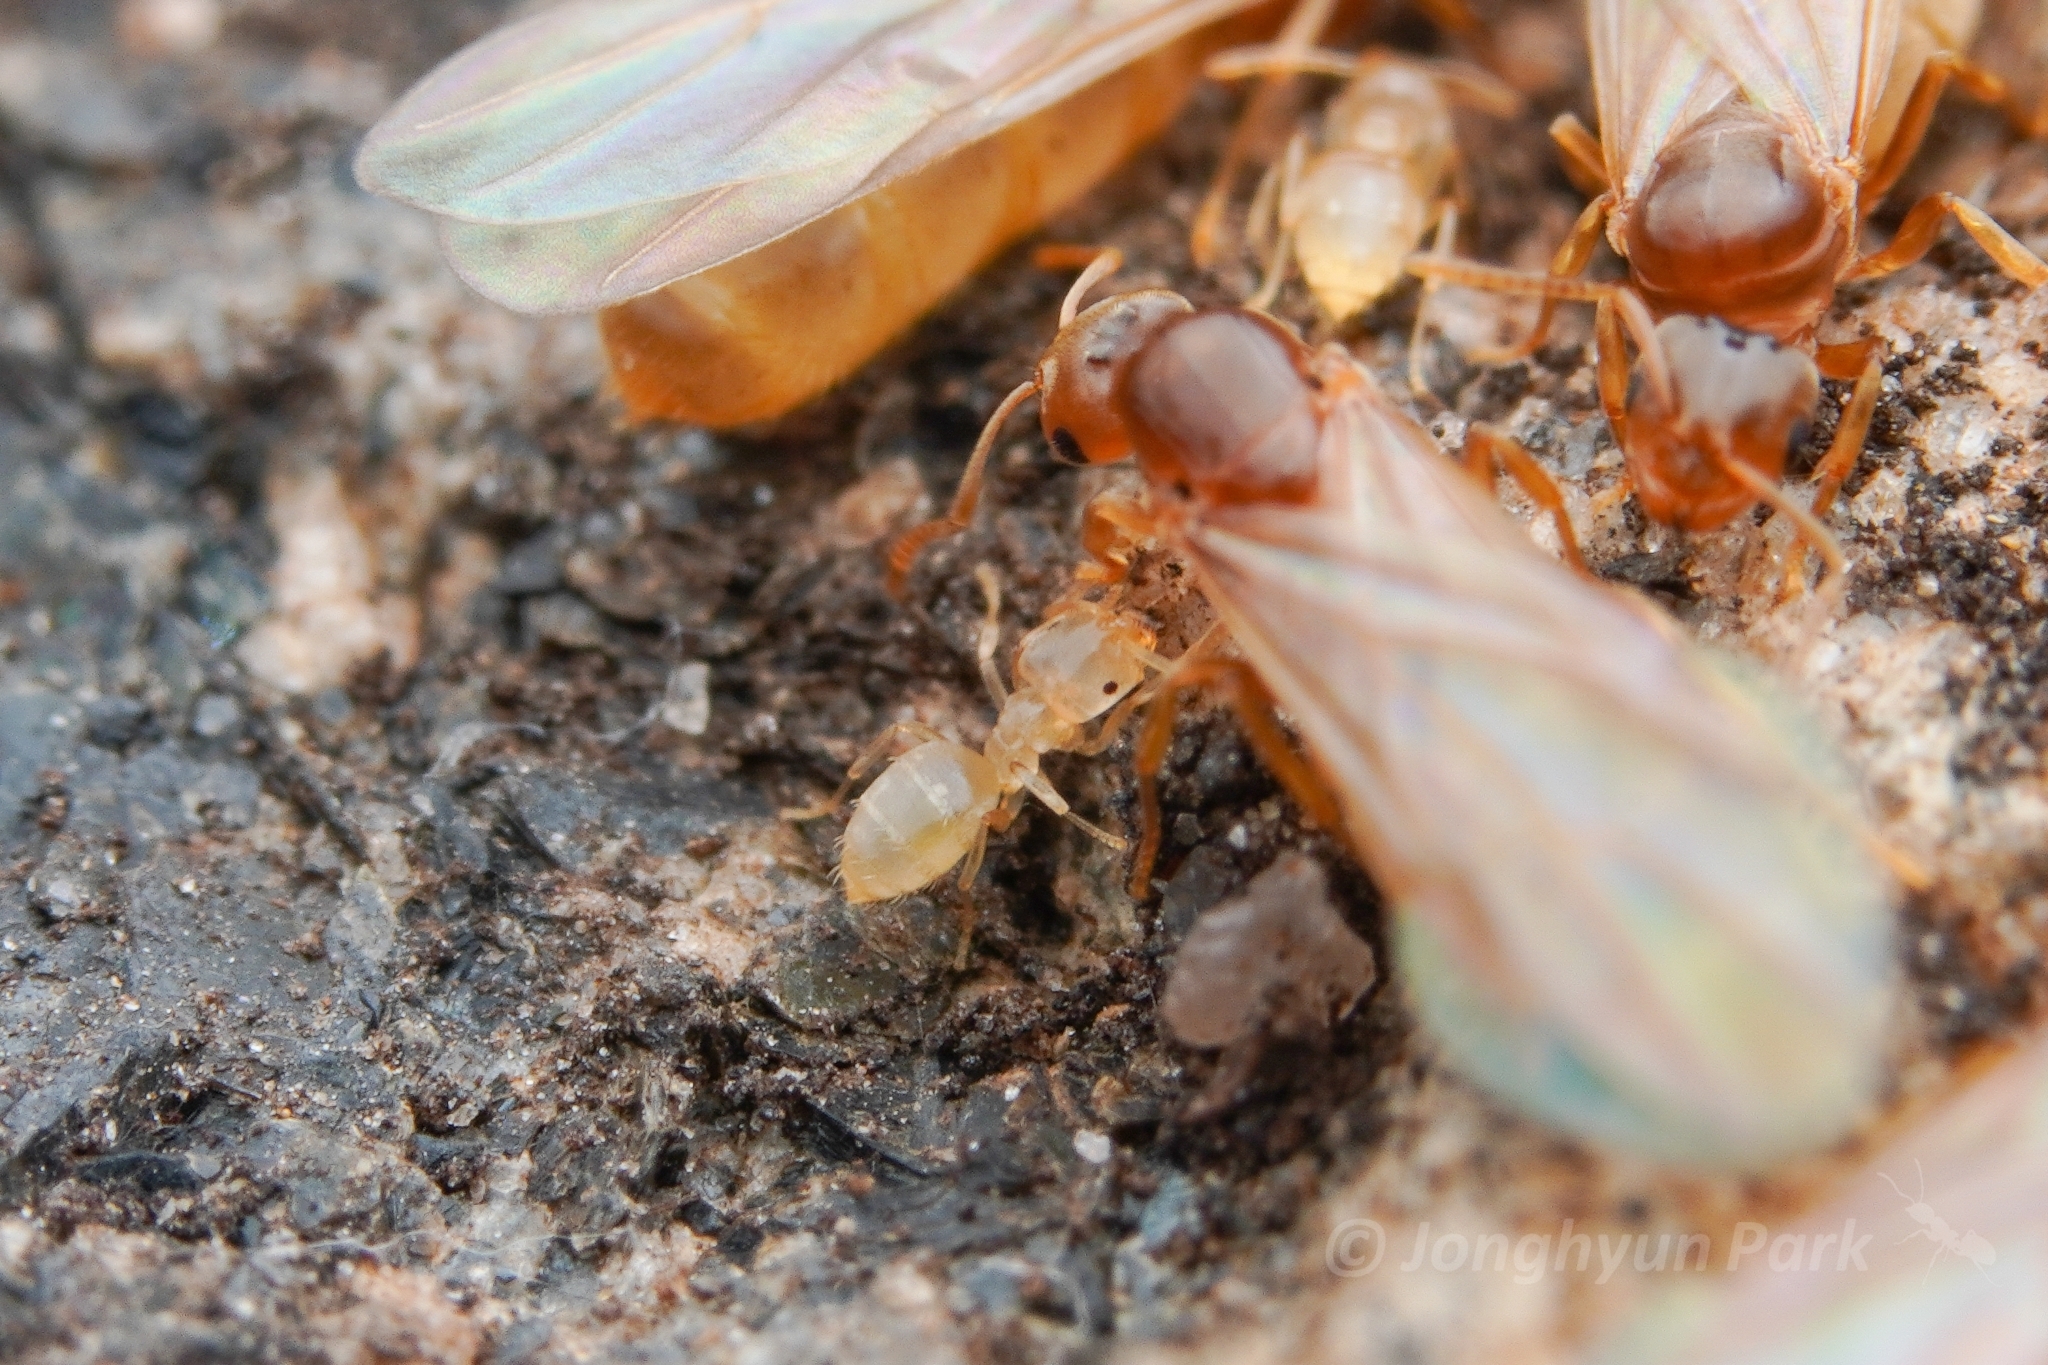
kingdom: Animalia
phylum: Arthropoda
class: Insecta
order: Hymenoptera
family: Formicidae
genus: Brachymyrmex
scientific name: Brachymyrmex depilis
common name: Hairless rover ant
